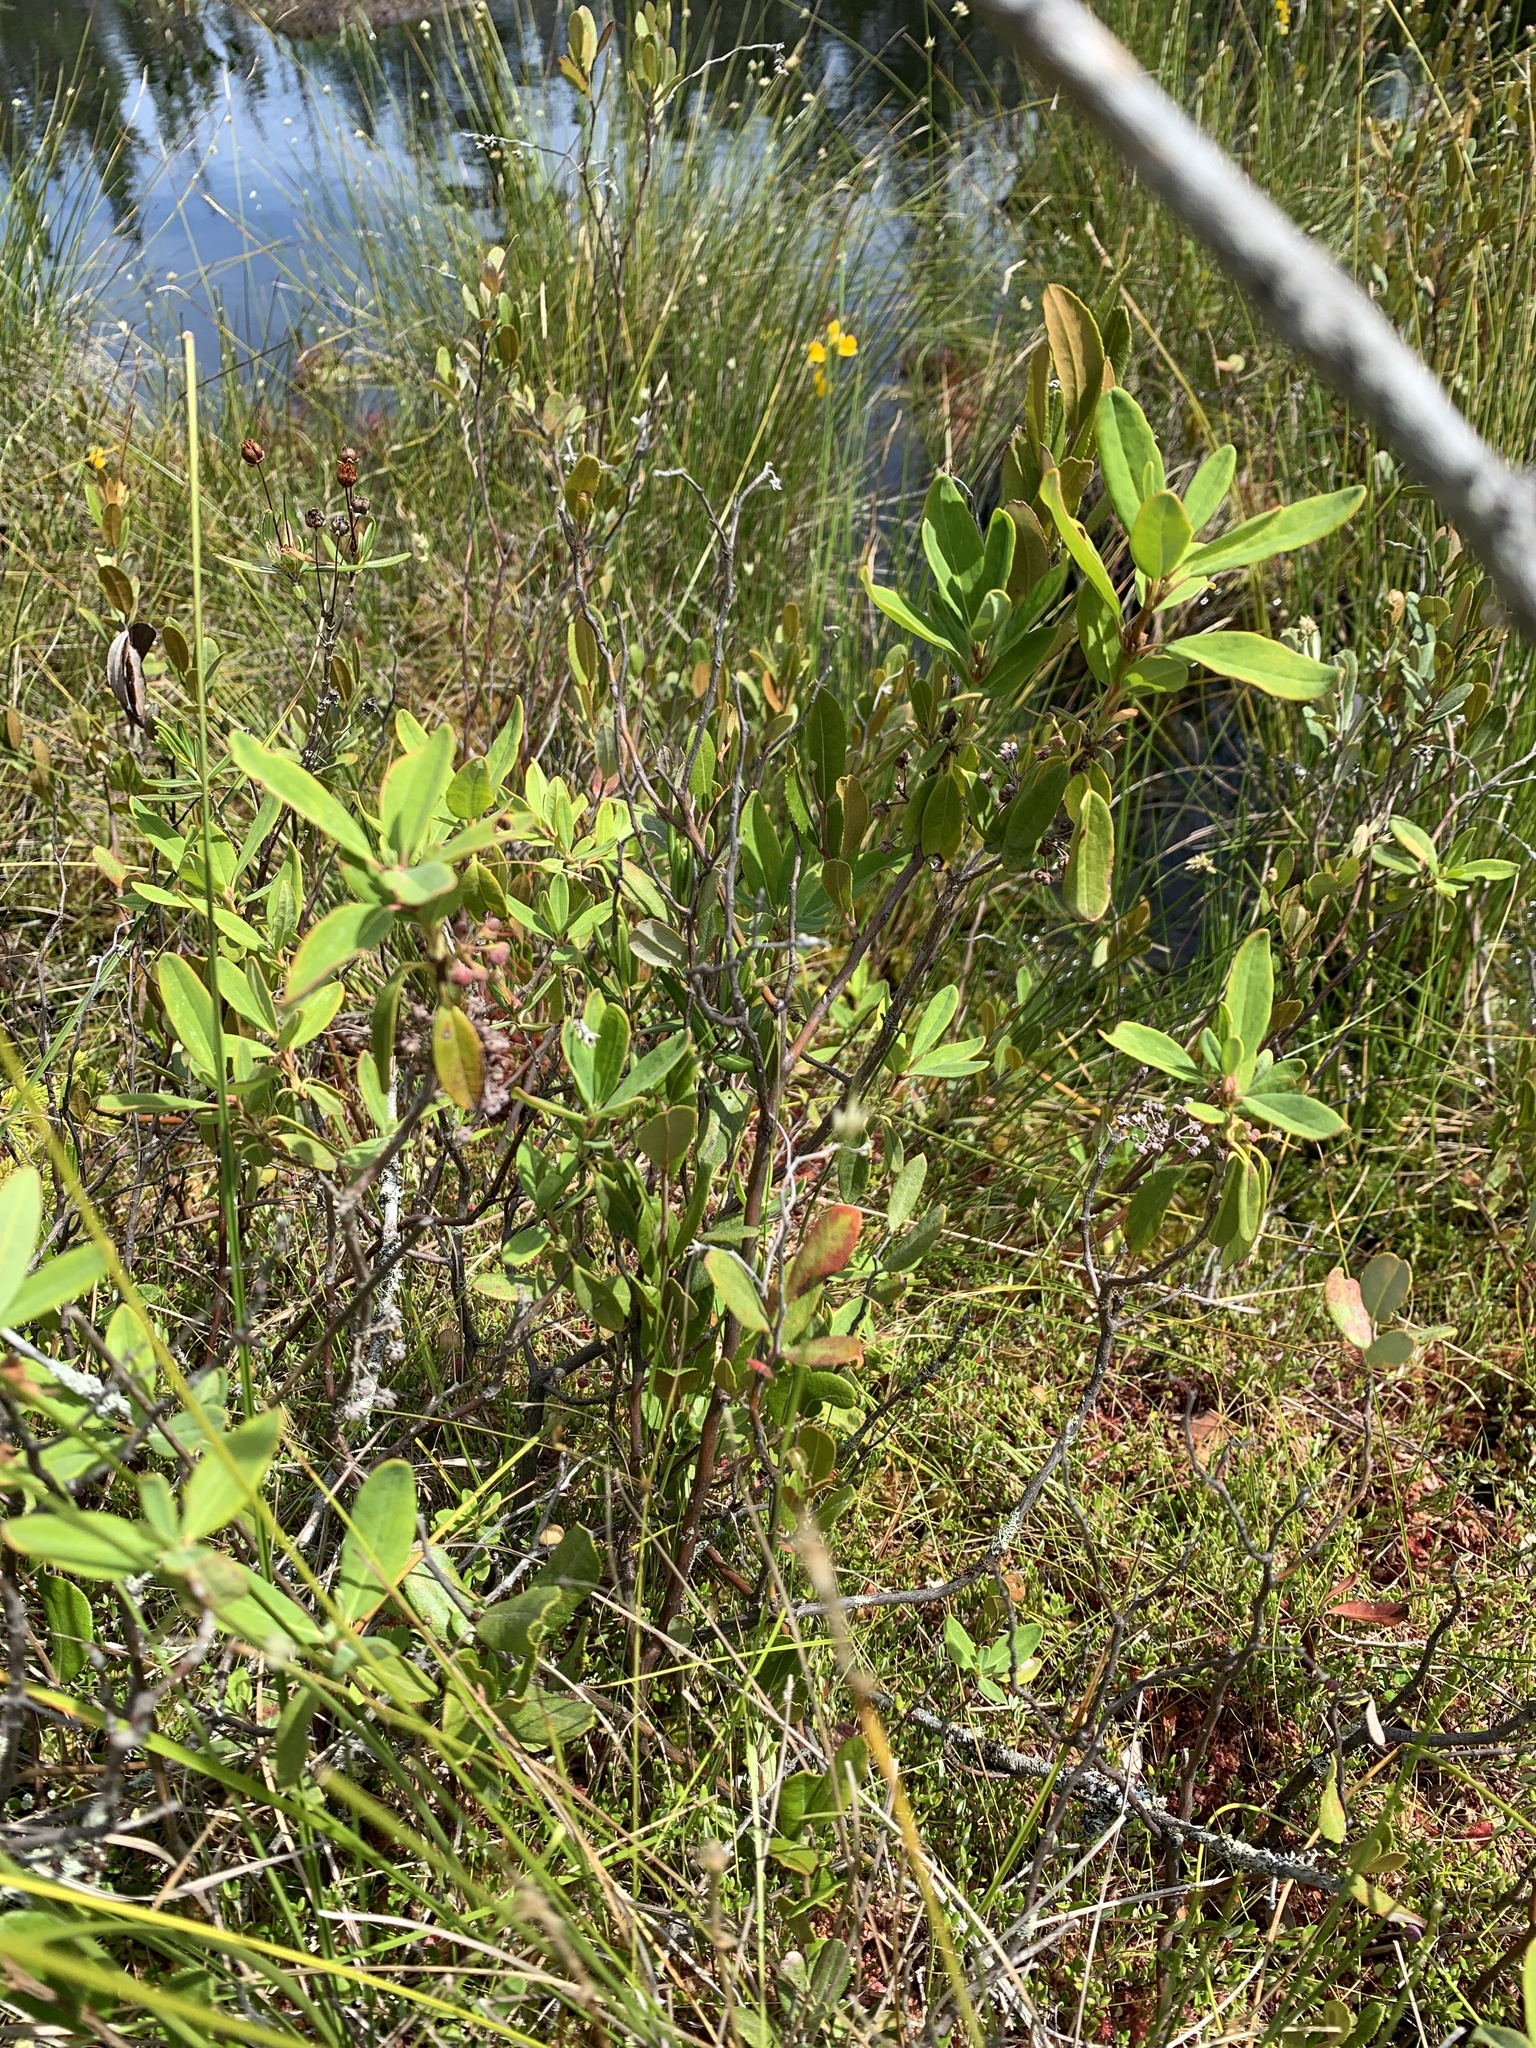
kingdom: Plantae
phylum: Tracheophyta
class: Magnoliopsida
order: Ericales
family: Ericaceae
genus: Kalmia
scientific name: Kalmia angustifolia
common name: Sheep-laurel
